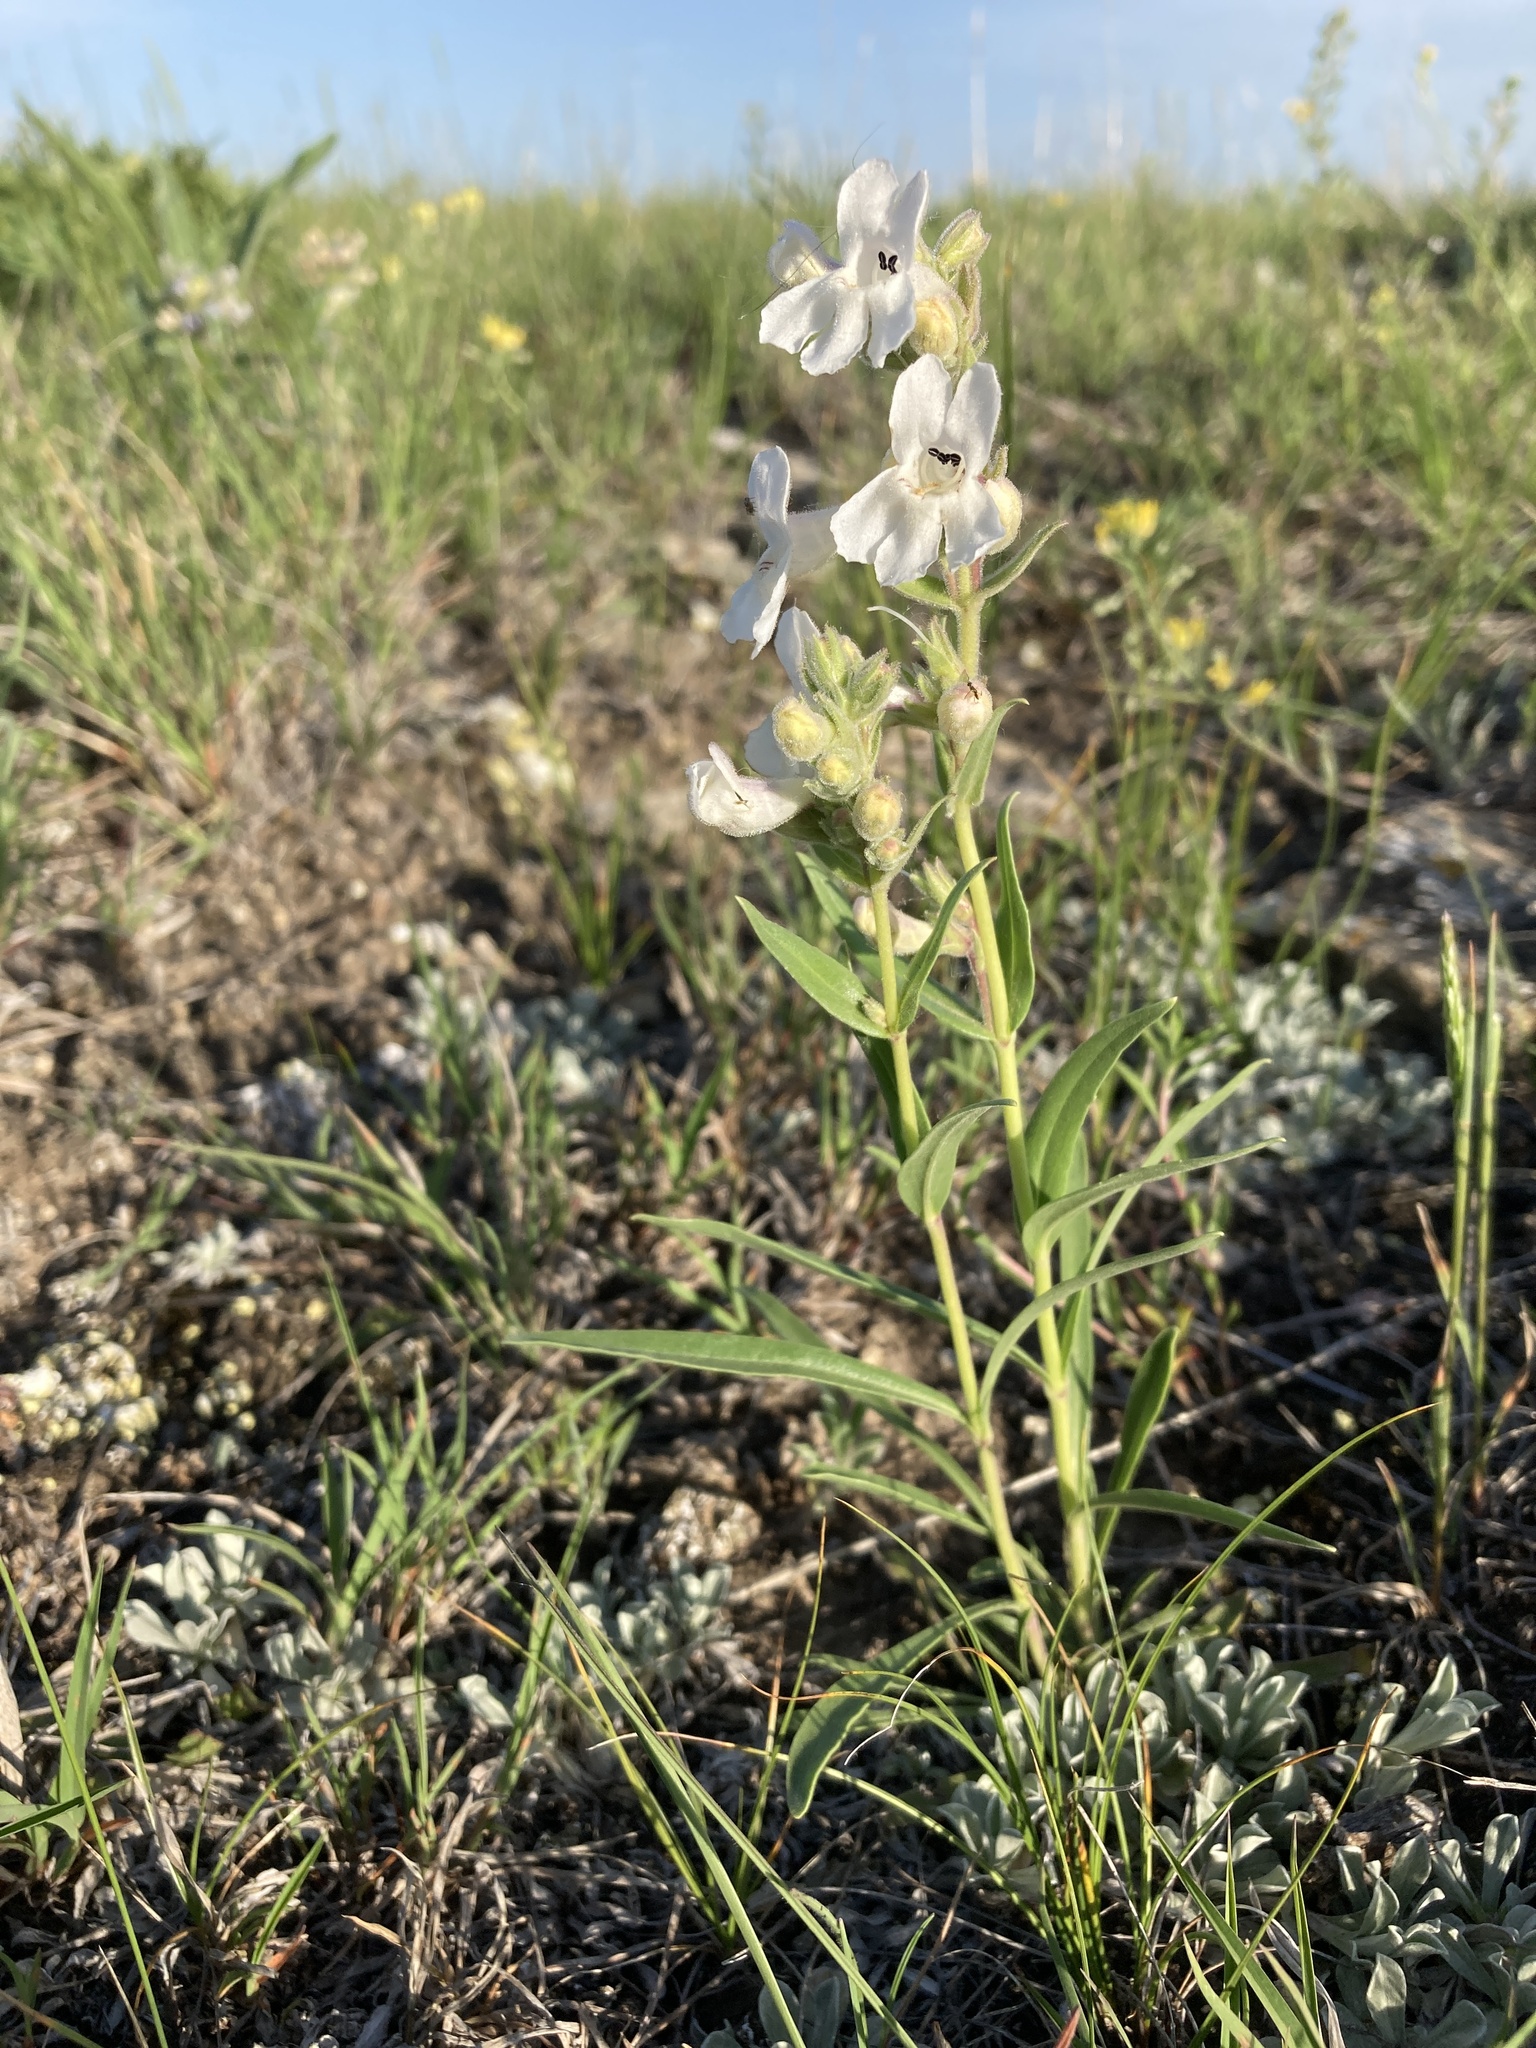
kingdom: Plantae
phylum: Tracheophyta
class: Magnoliopsida
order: Lamiales
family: Plantaginaceae
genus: Penstemon
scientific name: Penstemon albidus
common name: White beardtongue
